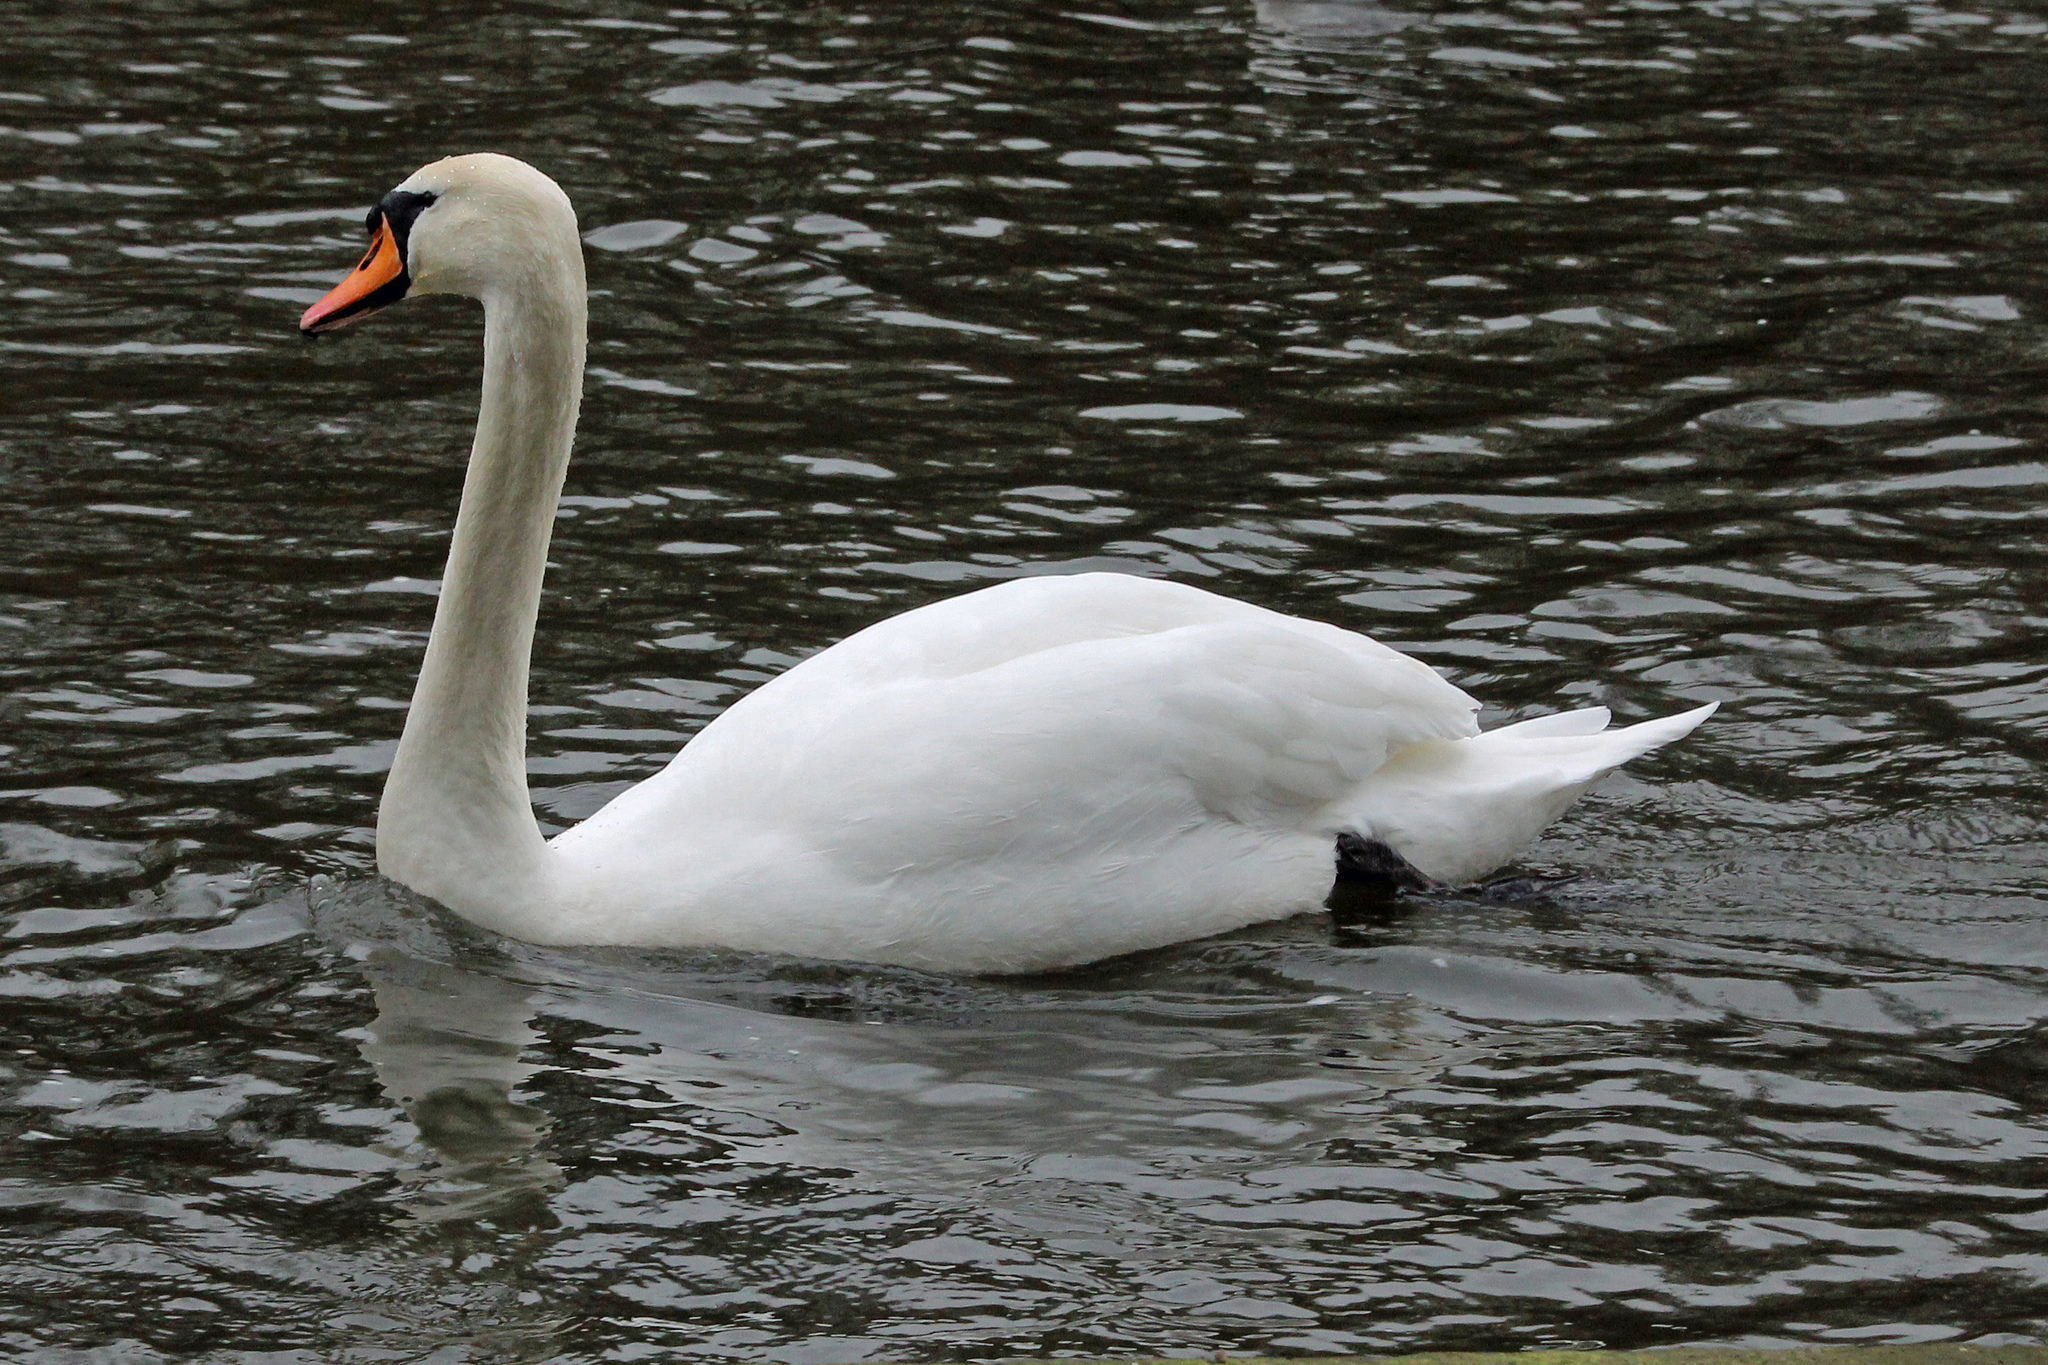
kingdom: Animalia
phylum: Chordata
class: Aves
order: Anseriformes
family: Anatidae
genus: Cygnus
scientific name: Cygnus olor
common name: Mute swan
